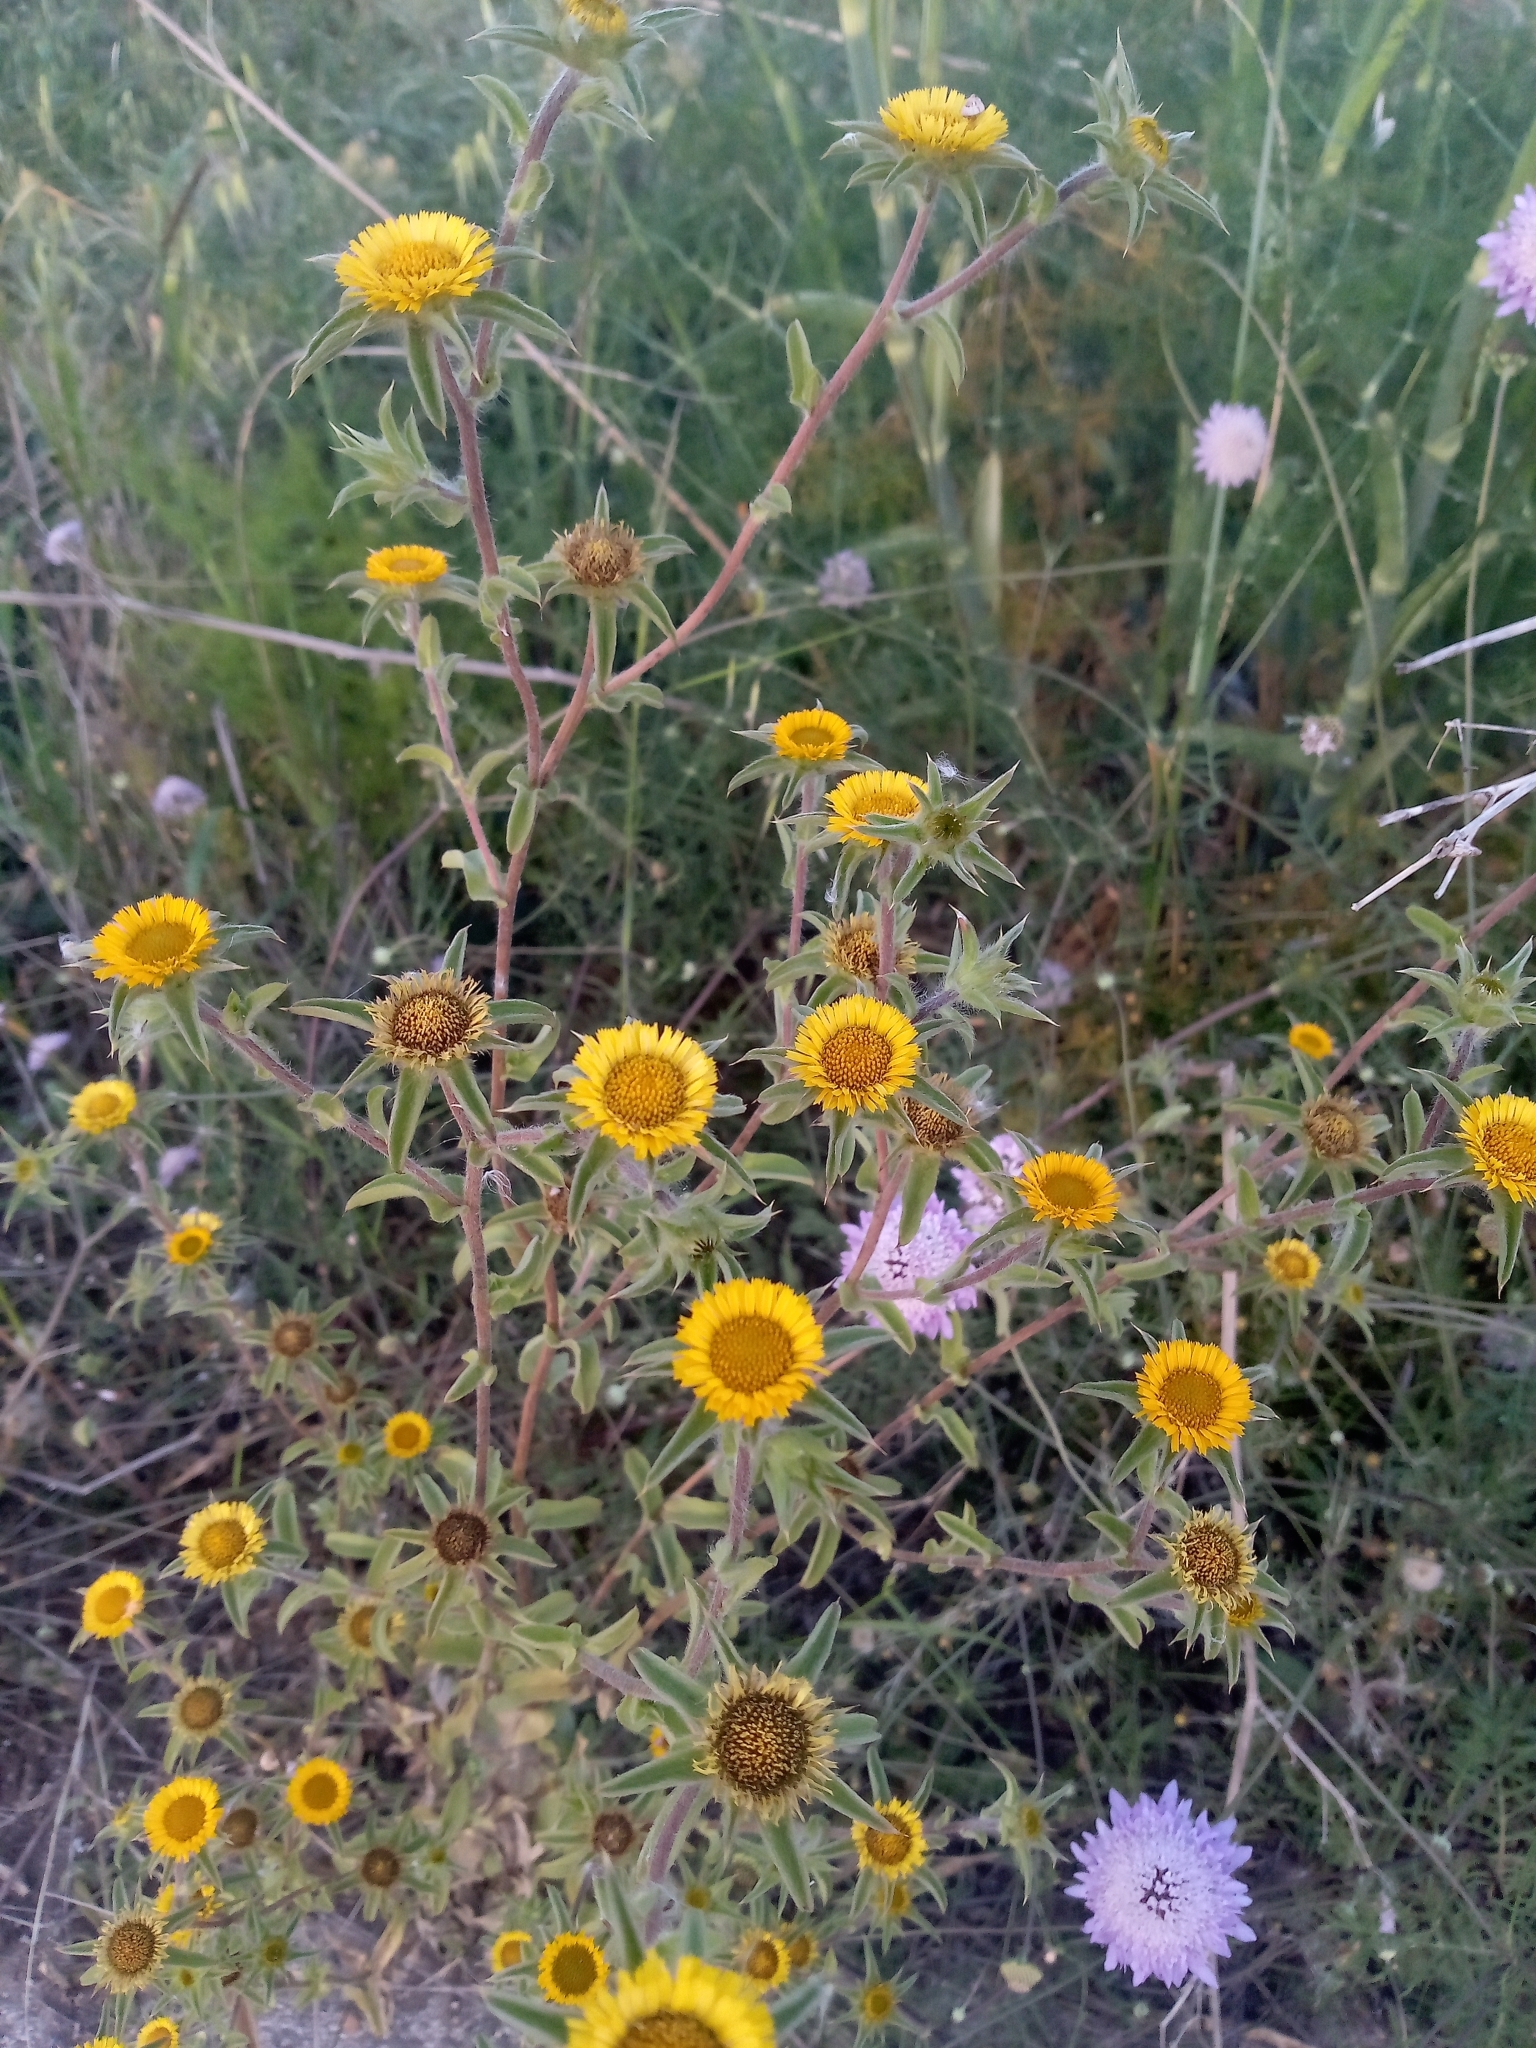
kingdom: Plantae
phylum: Tracheophyta
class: Magnoliopsida
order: Asterales
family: Asteraceae
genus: Pallenis
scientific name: Pallenis spinosa
